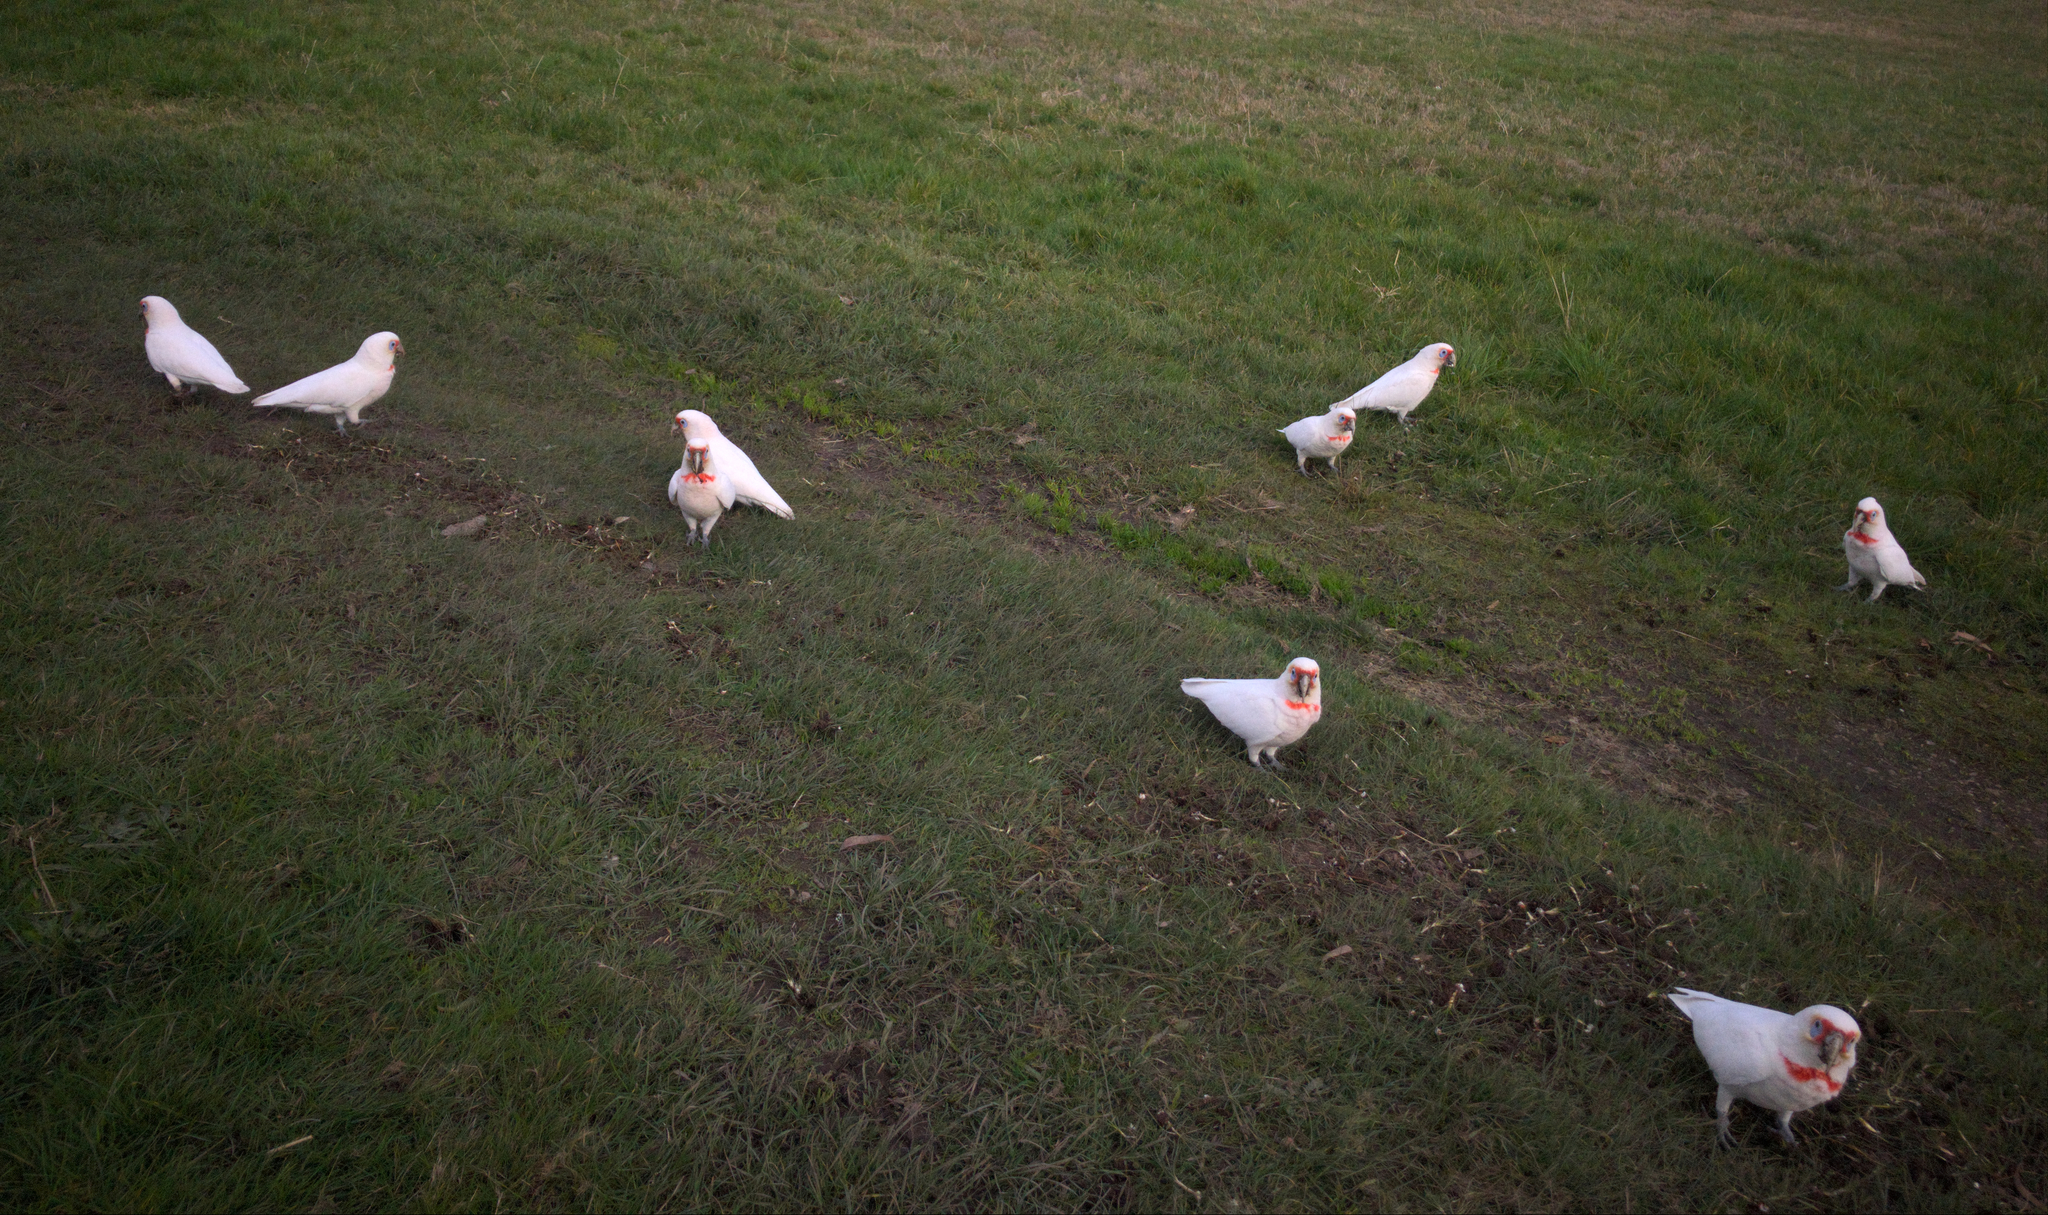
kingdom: Animalia
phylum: Chordata
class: Aves
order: Psittaciformes
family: Psittacidae
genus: Cacatua
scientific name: Cacatua tenuirostris
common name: Long-billed corella
